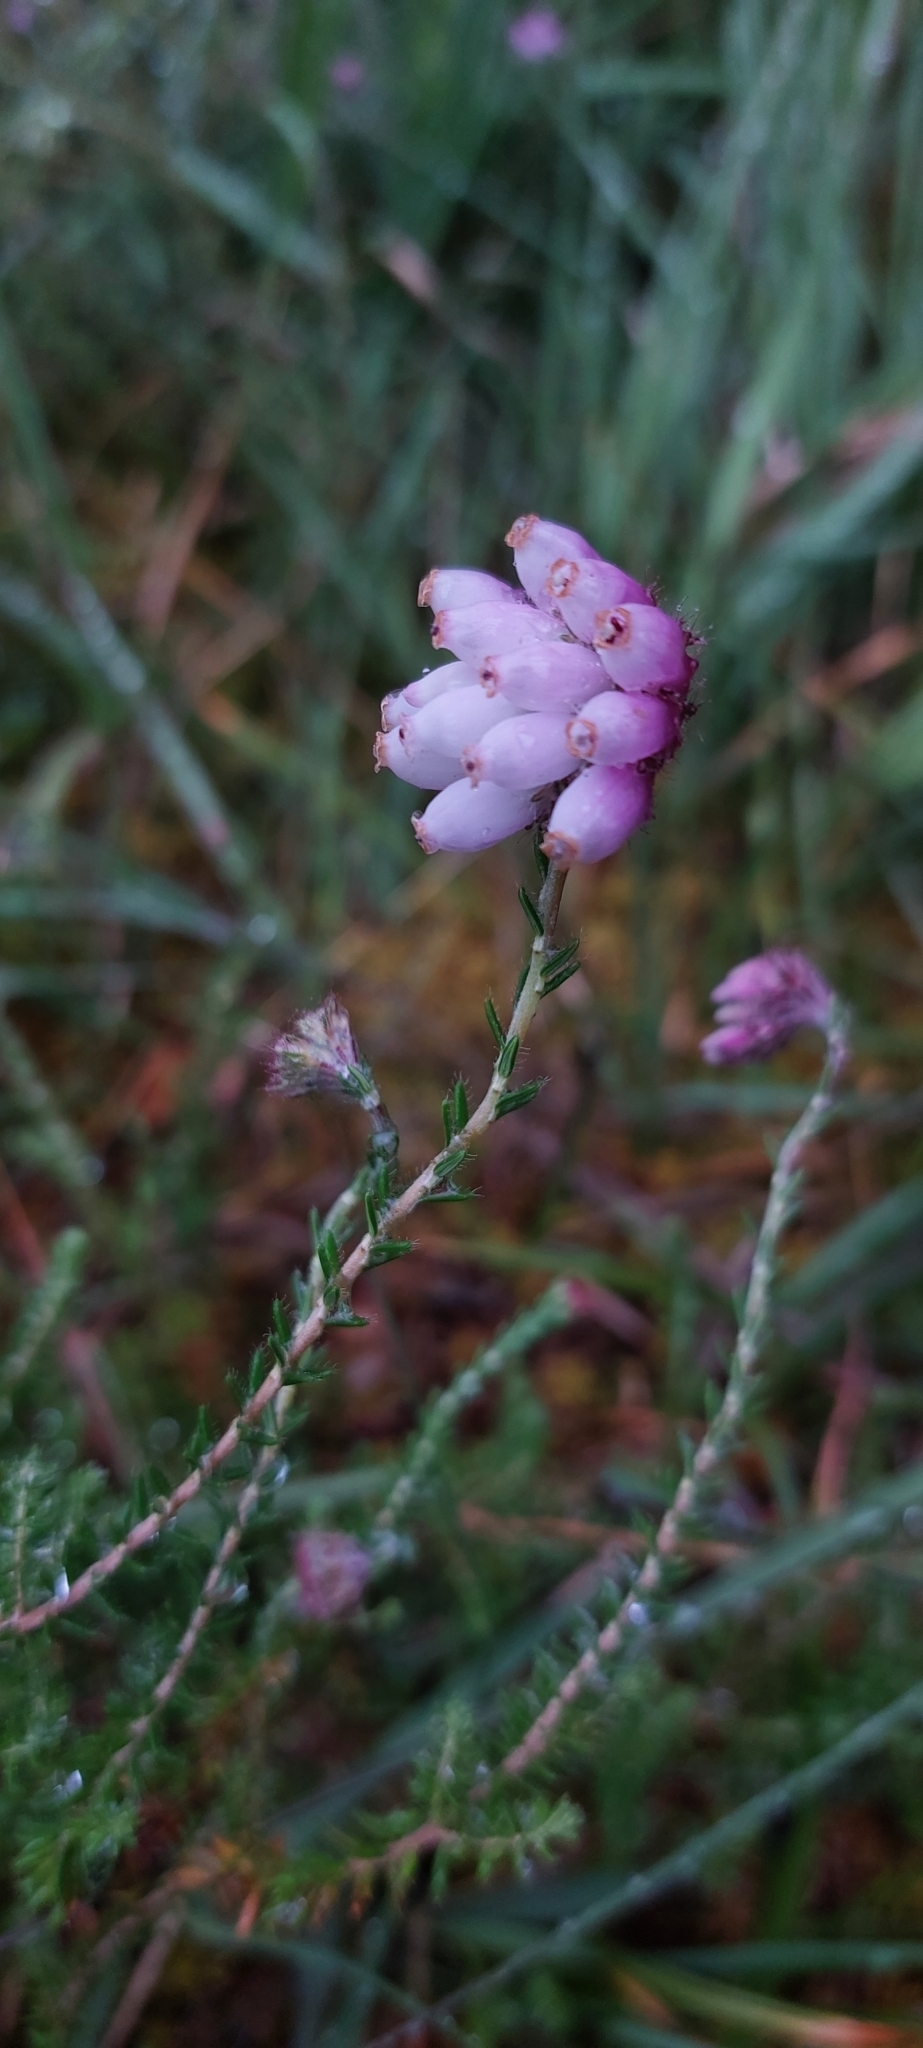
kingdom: Plantae
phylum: Tracheophyta
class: Magnoliopsida
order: Ericales
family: Ericaceae
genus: Erica
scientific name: Erica tetralix
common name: Cross-leaved heath
